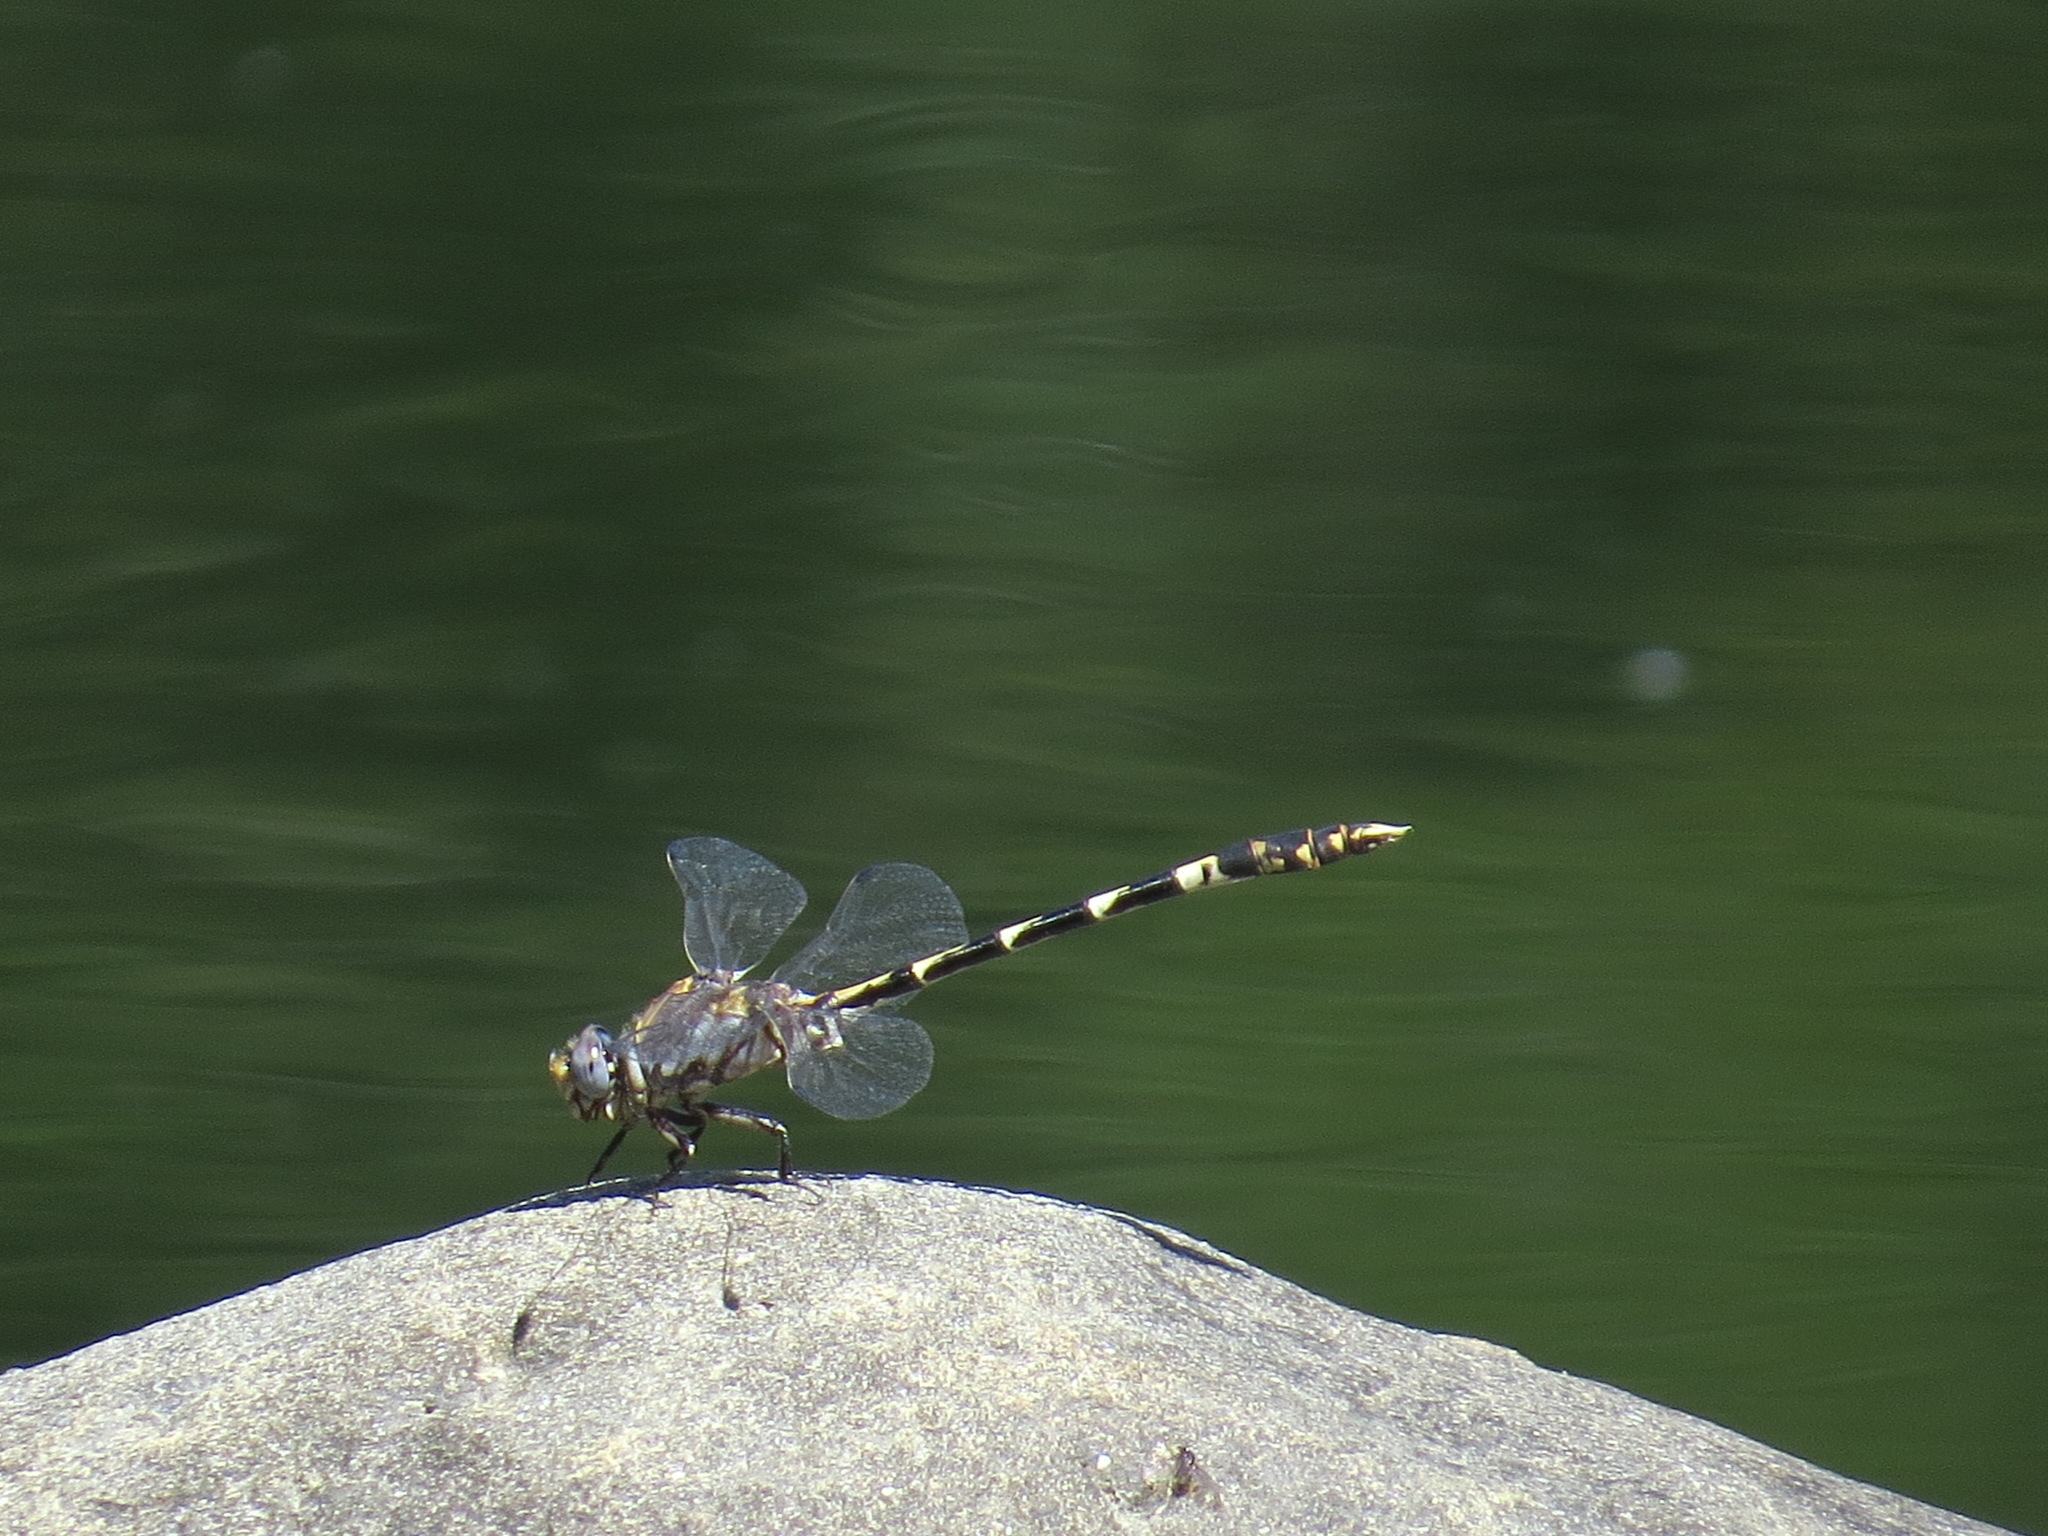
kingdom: Animalia
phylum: Arthropoda
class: Insecta
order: Odonata
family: Gomphidae
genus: Progomphus
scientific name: Progomphus borealis
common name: Gray sanddragon
